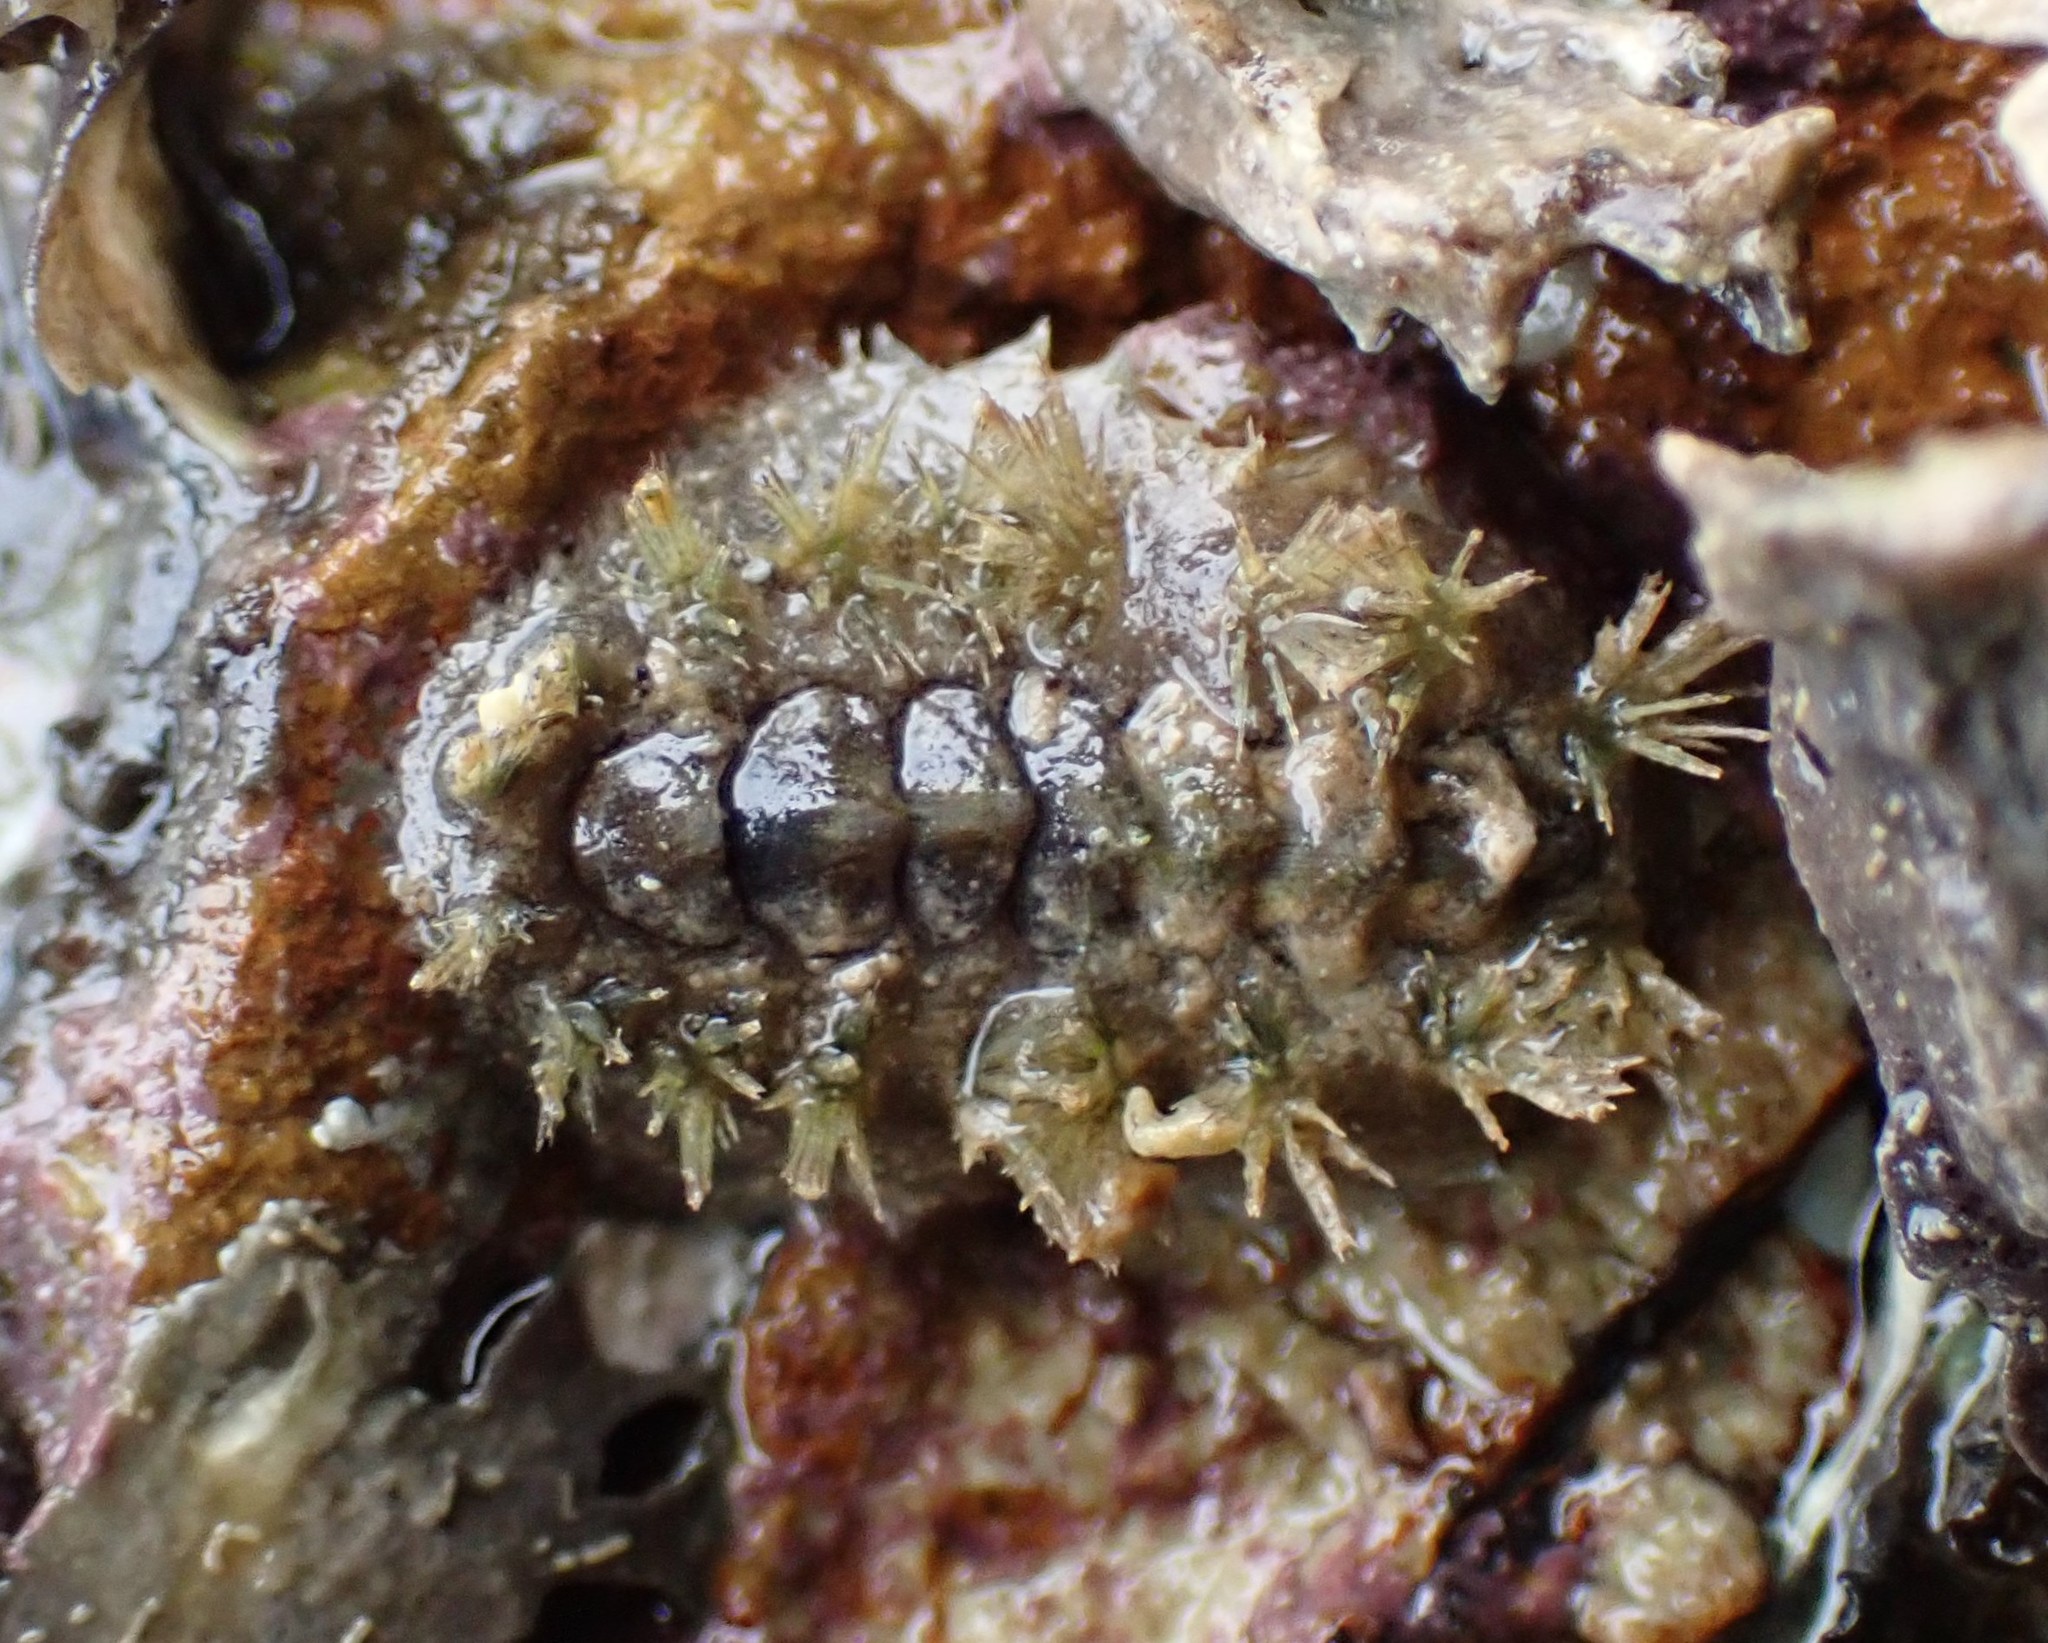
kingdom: Animalia
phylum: Mollusca
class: Polyplacophora
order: Chitonida
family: Acanthochitonidae
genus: Acanthochitona
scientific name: Acanthochitona zelandica
